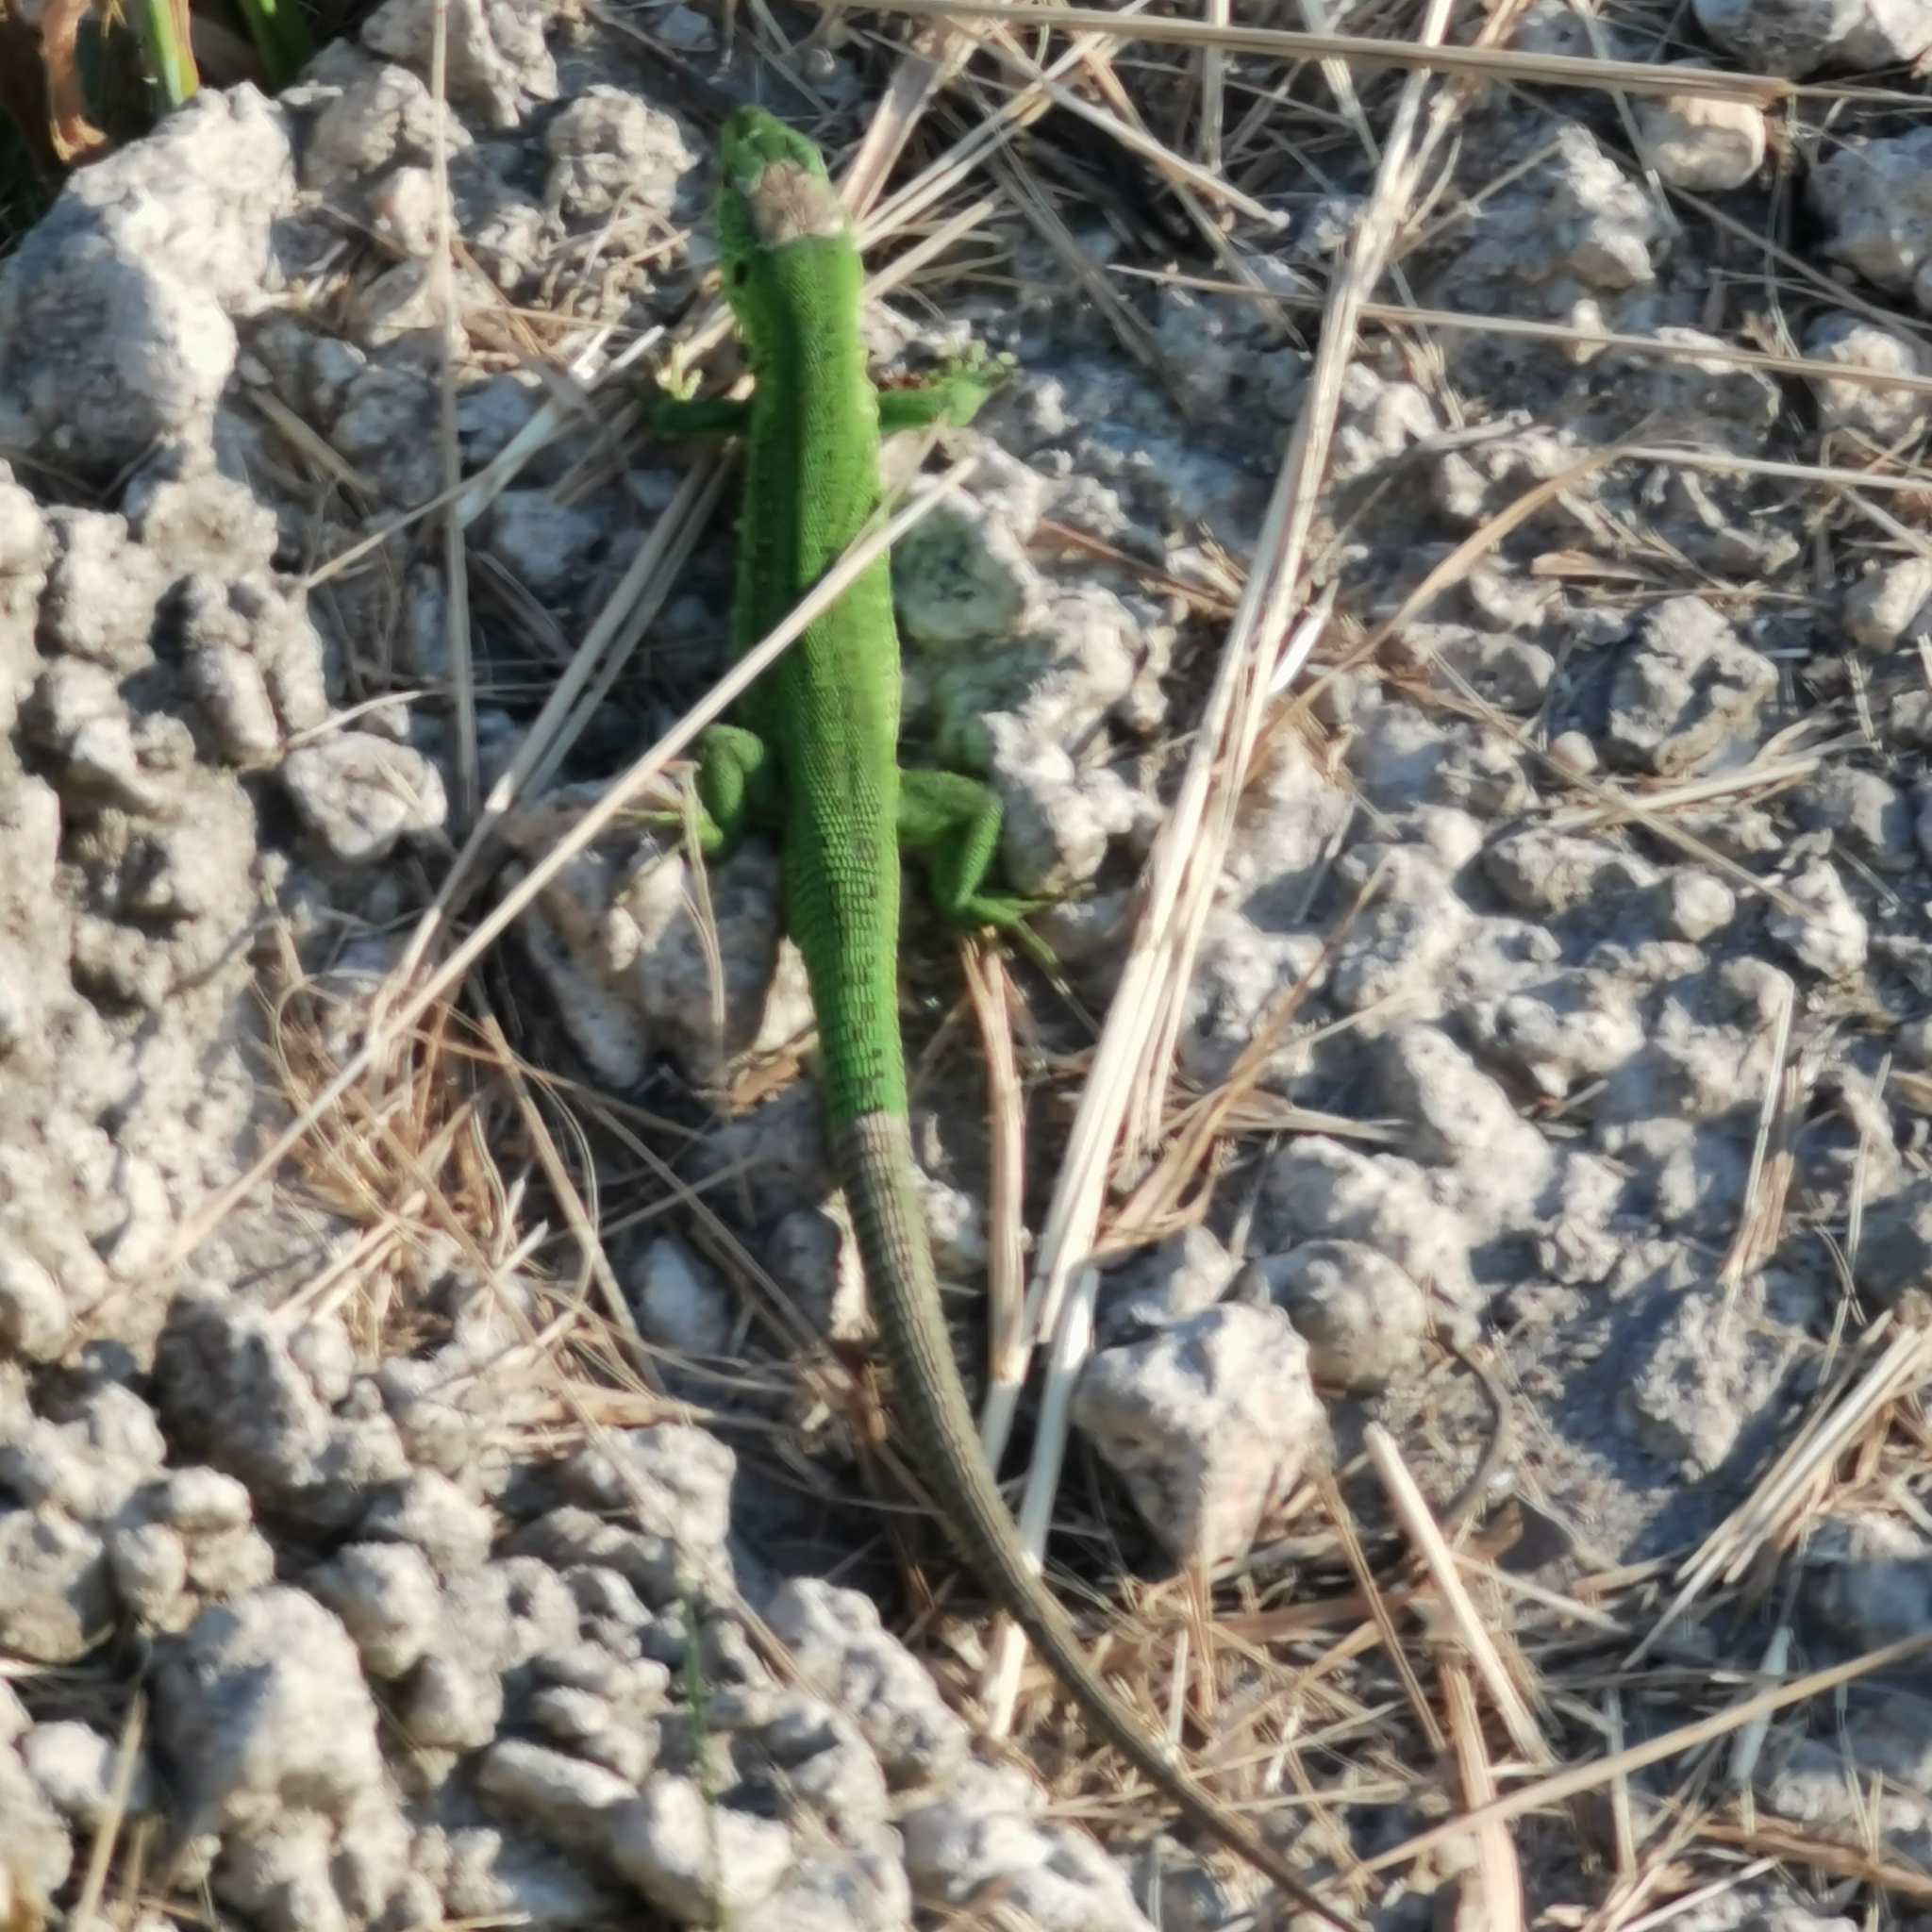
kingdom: Animalia
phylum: Chordata
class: Squamata
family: Lacertidae
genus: Lacerta
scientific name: Lacerta agilis
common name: Sand lizard
